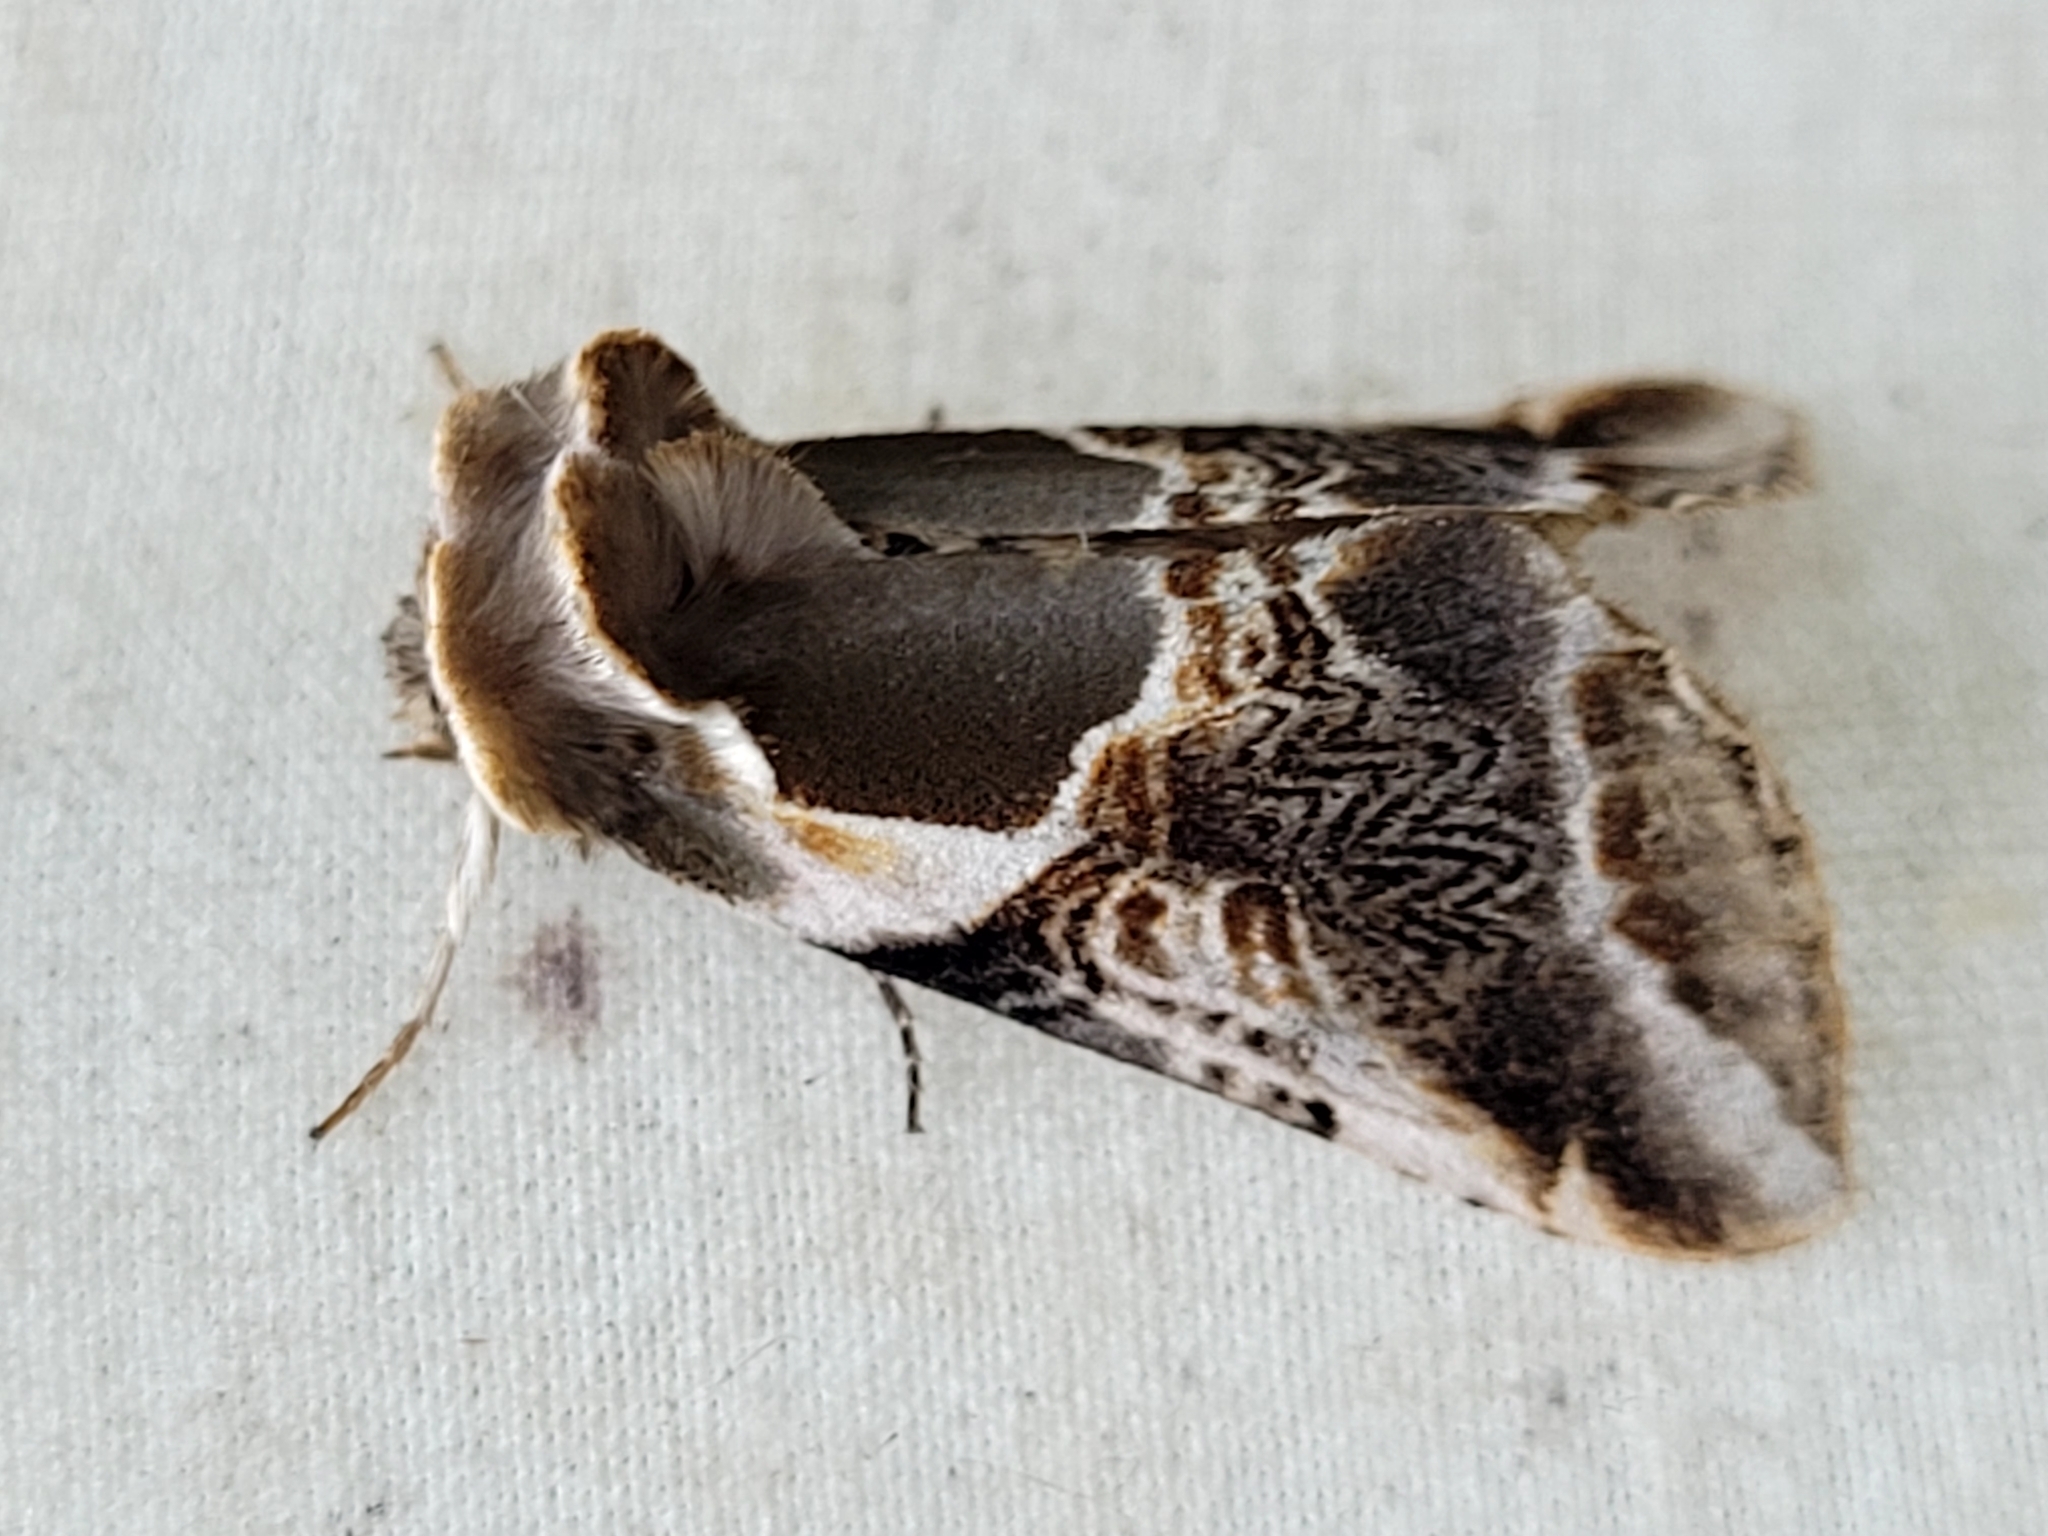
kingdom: Animalia
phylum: Arthropoda
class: Insecta
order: Lepidoptera
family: Drepanidae
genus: Habrosyne
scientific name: Habrosyne scripta
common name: Lettered habrosyne moth
